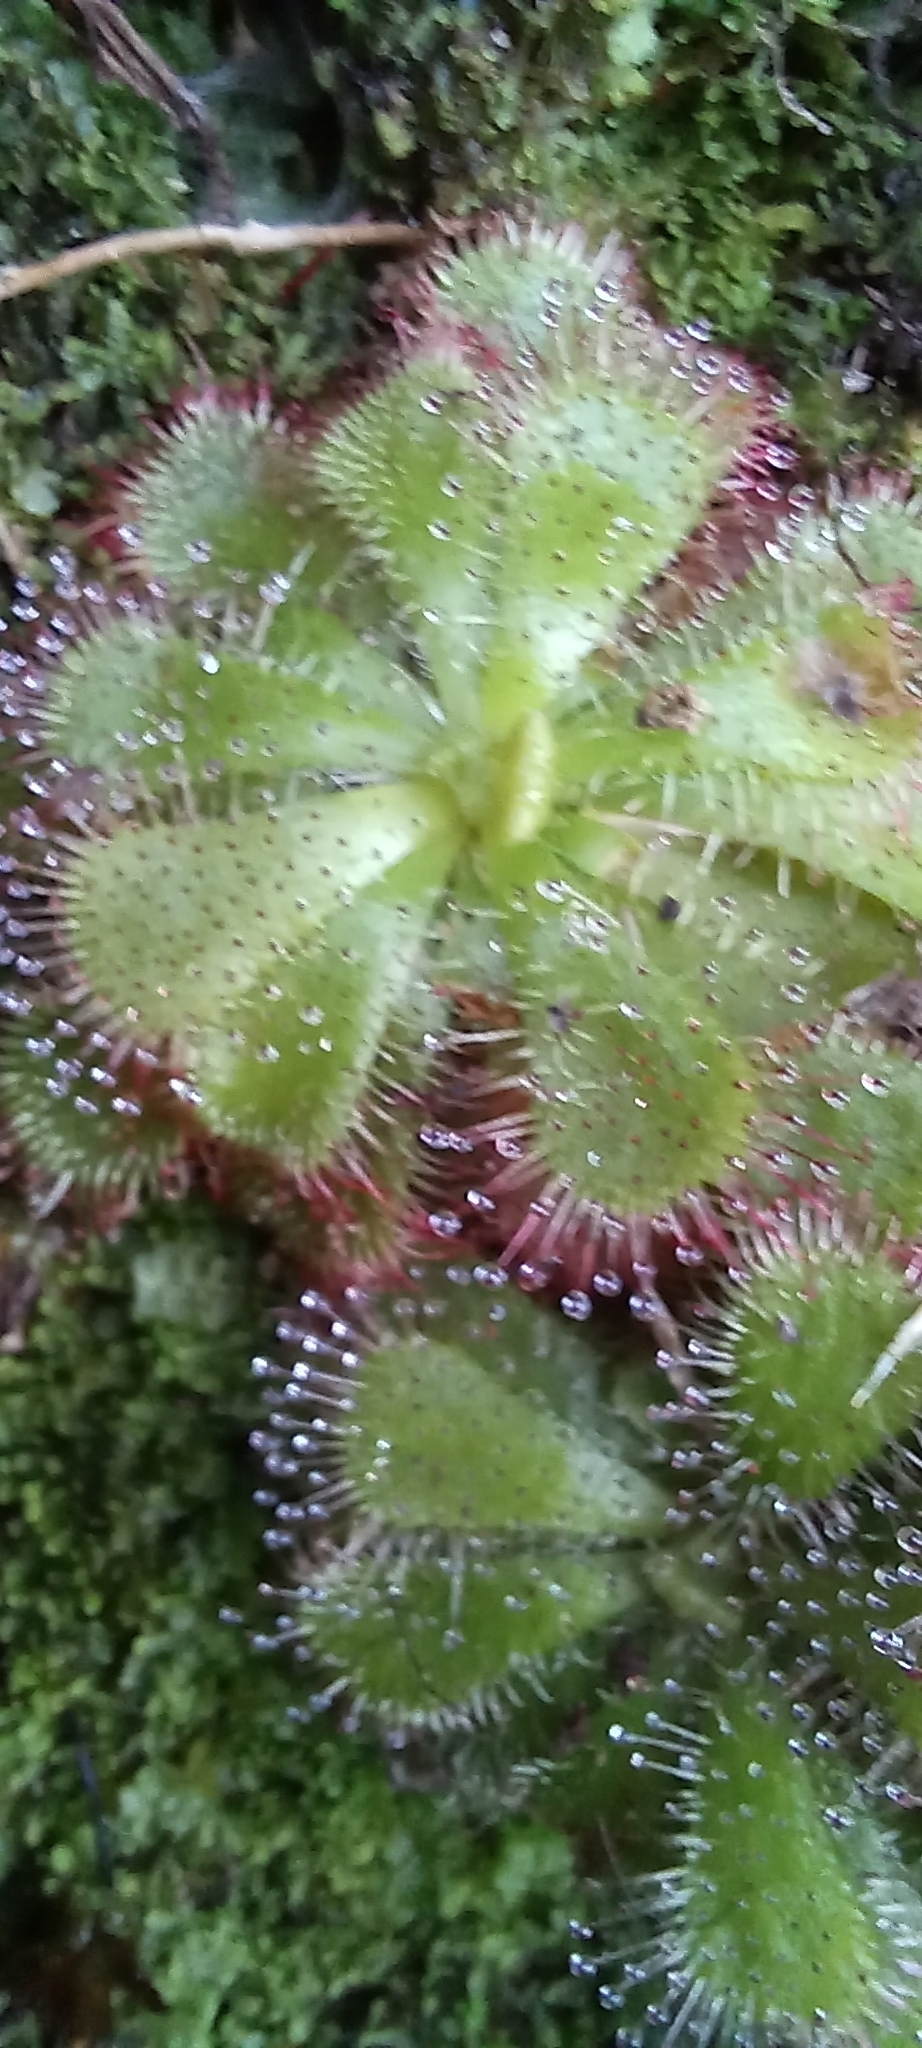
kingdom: Plantae
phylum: Tracheophyta
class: Magnoliopsida
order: Caryophyllales
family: Droseraceae
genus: Drosera
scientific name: Drosera cuneifolia
